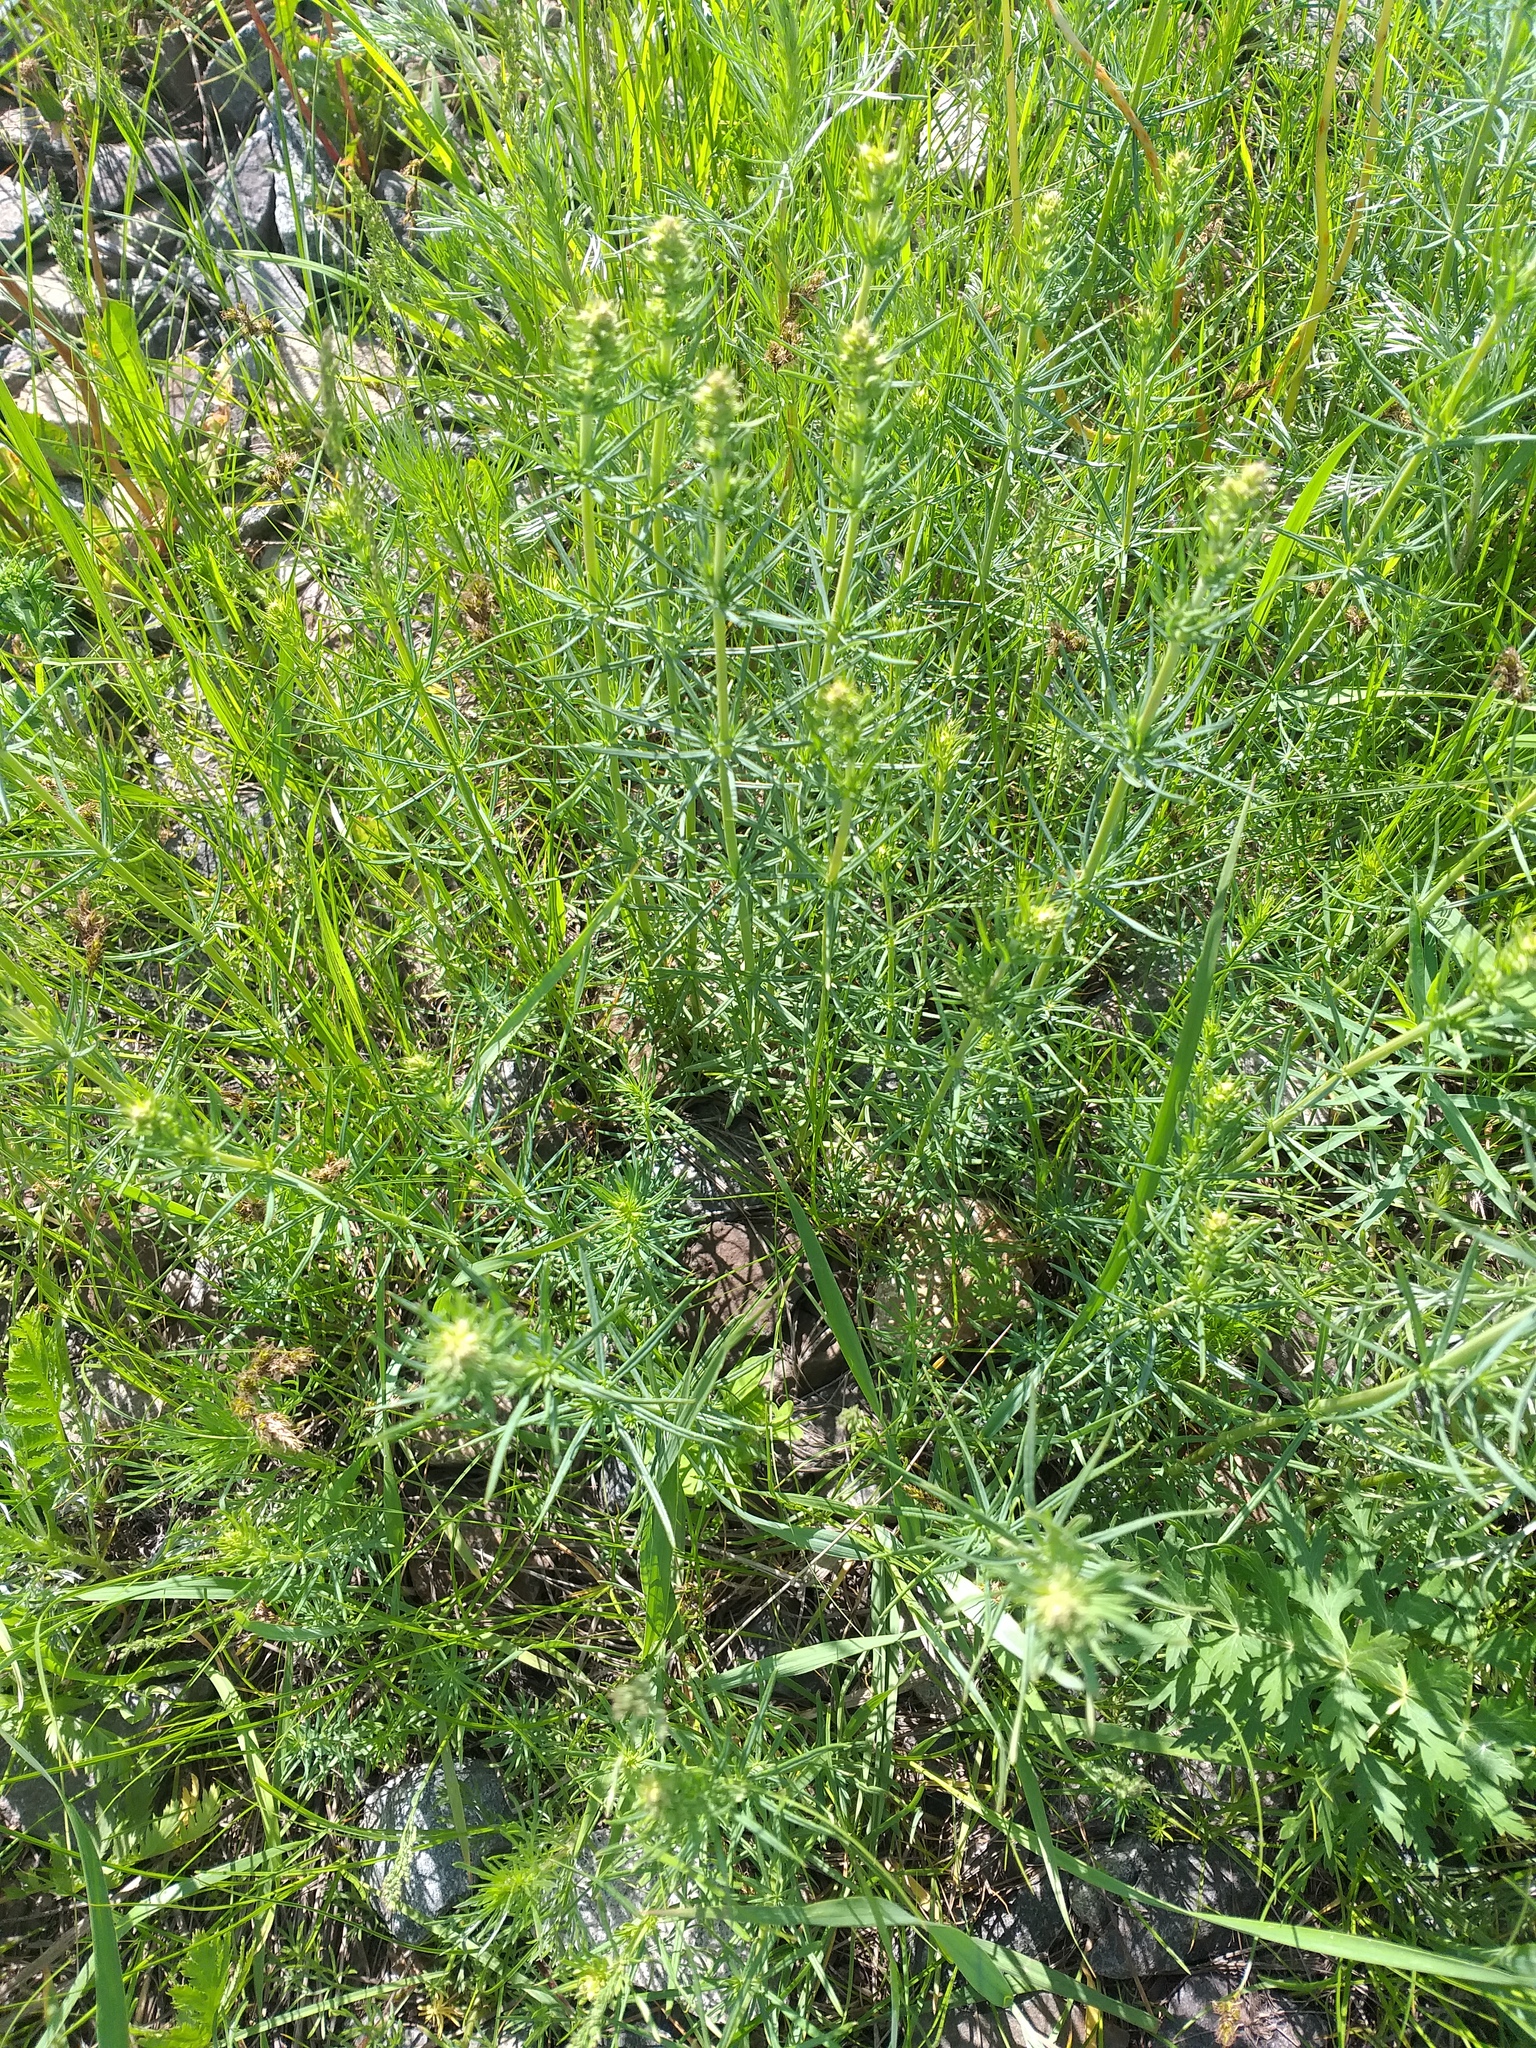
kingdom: Plantae
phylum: Tracheophyta
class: Magnoliopsida
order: Gentianales
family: Rubiaceae
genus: Galium
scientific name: Galium verum
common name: Lady's bedstraw
